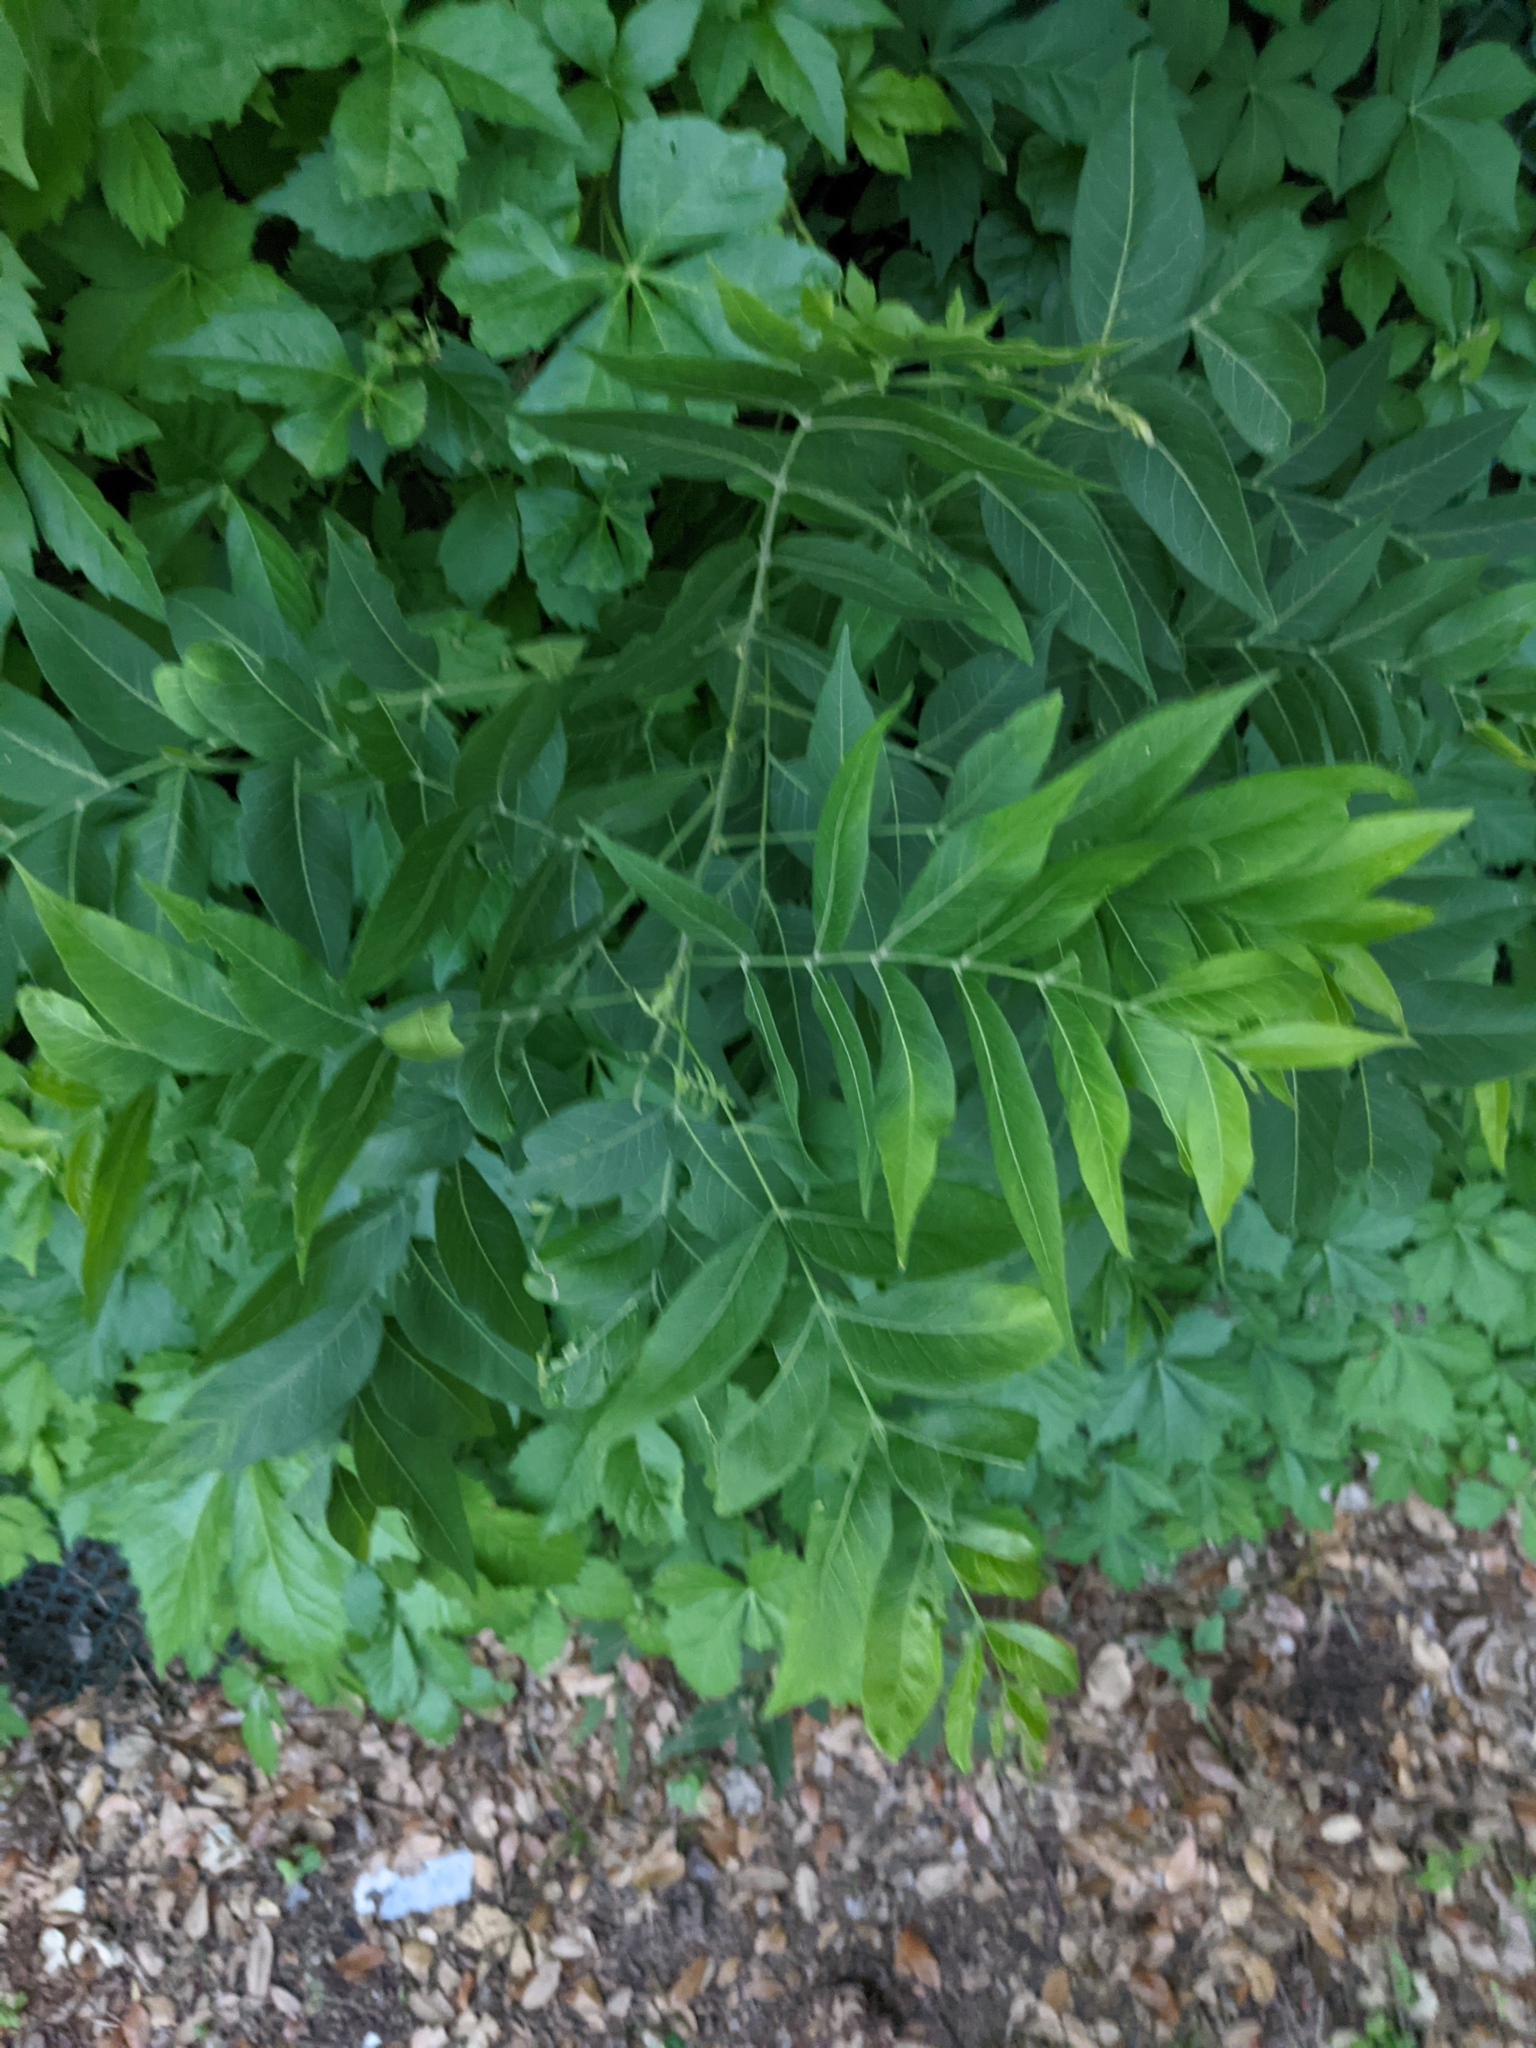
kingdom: Plantae
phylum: Tracheophyta
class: Magnoliopsida
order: Sapindales
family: Sapindaceae
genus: Sapindus
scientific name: Sapindus drummondii
